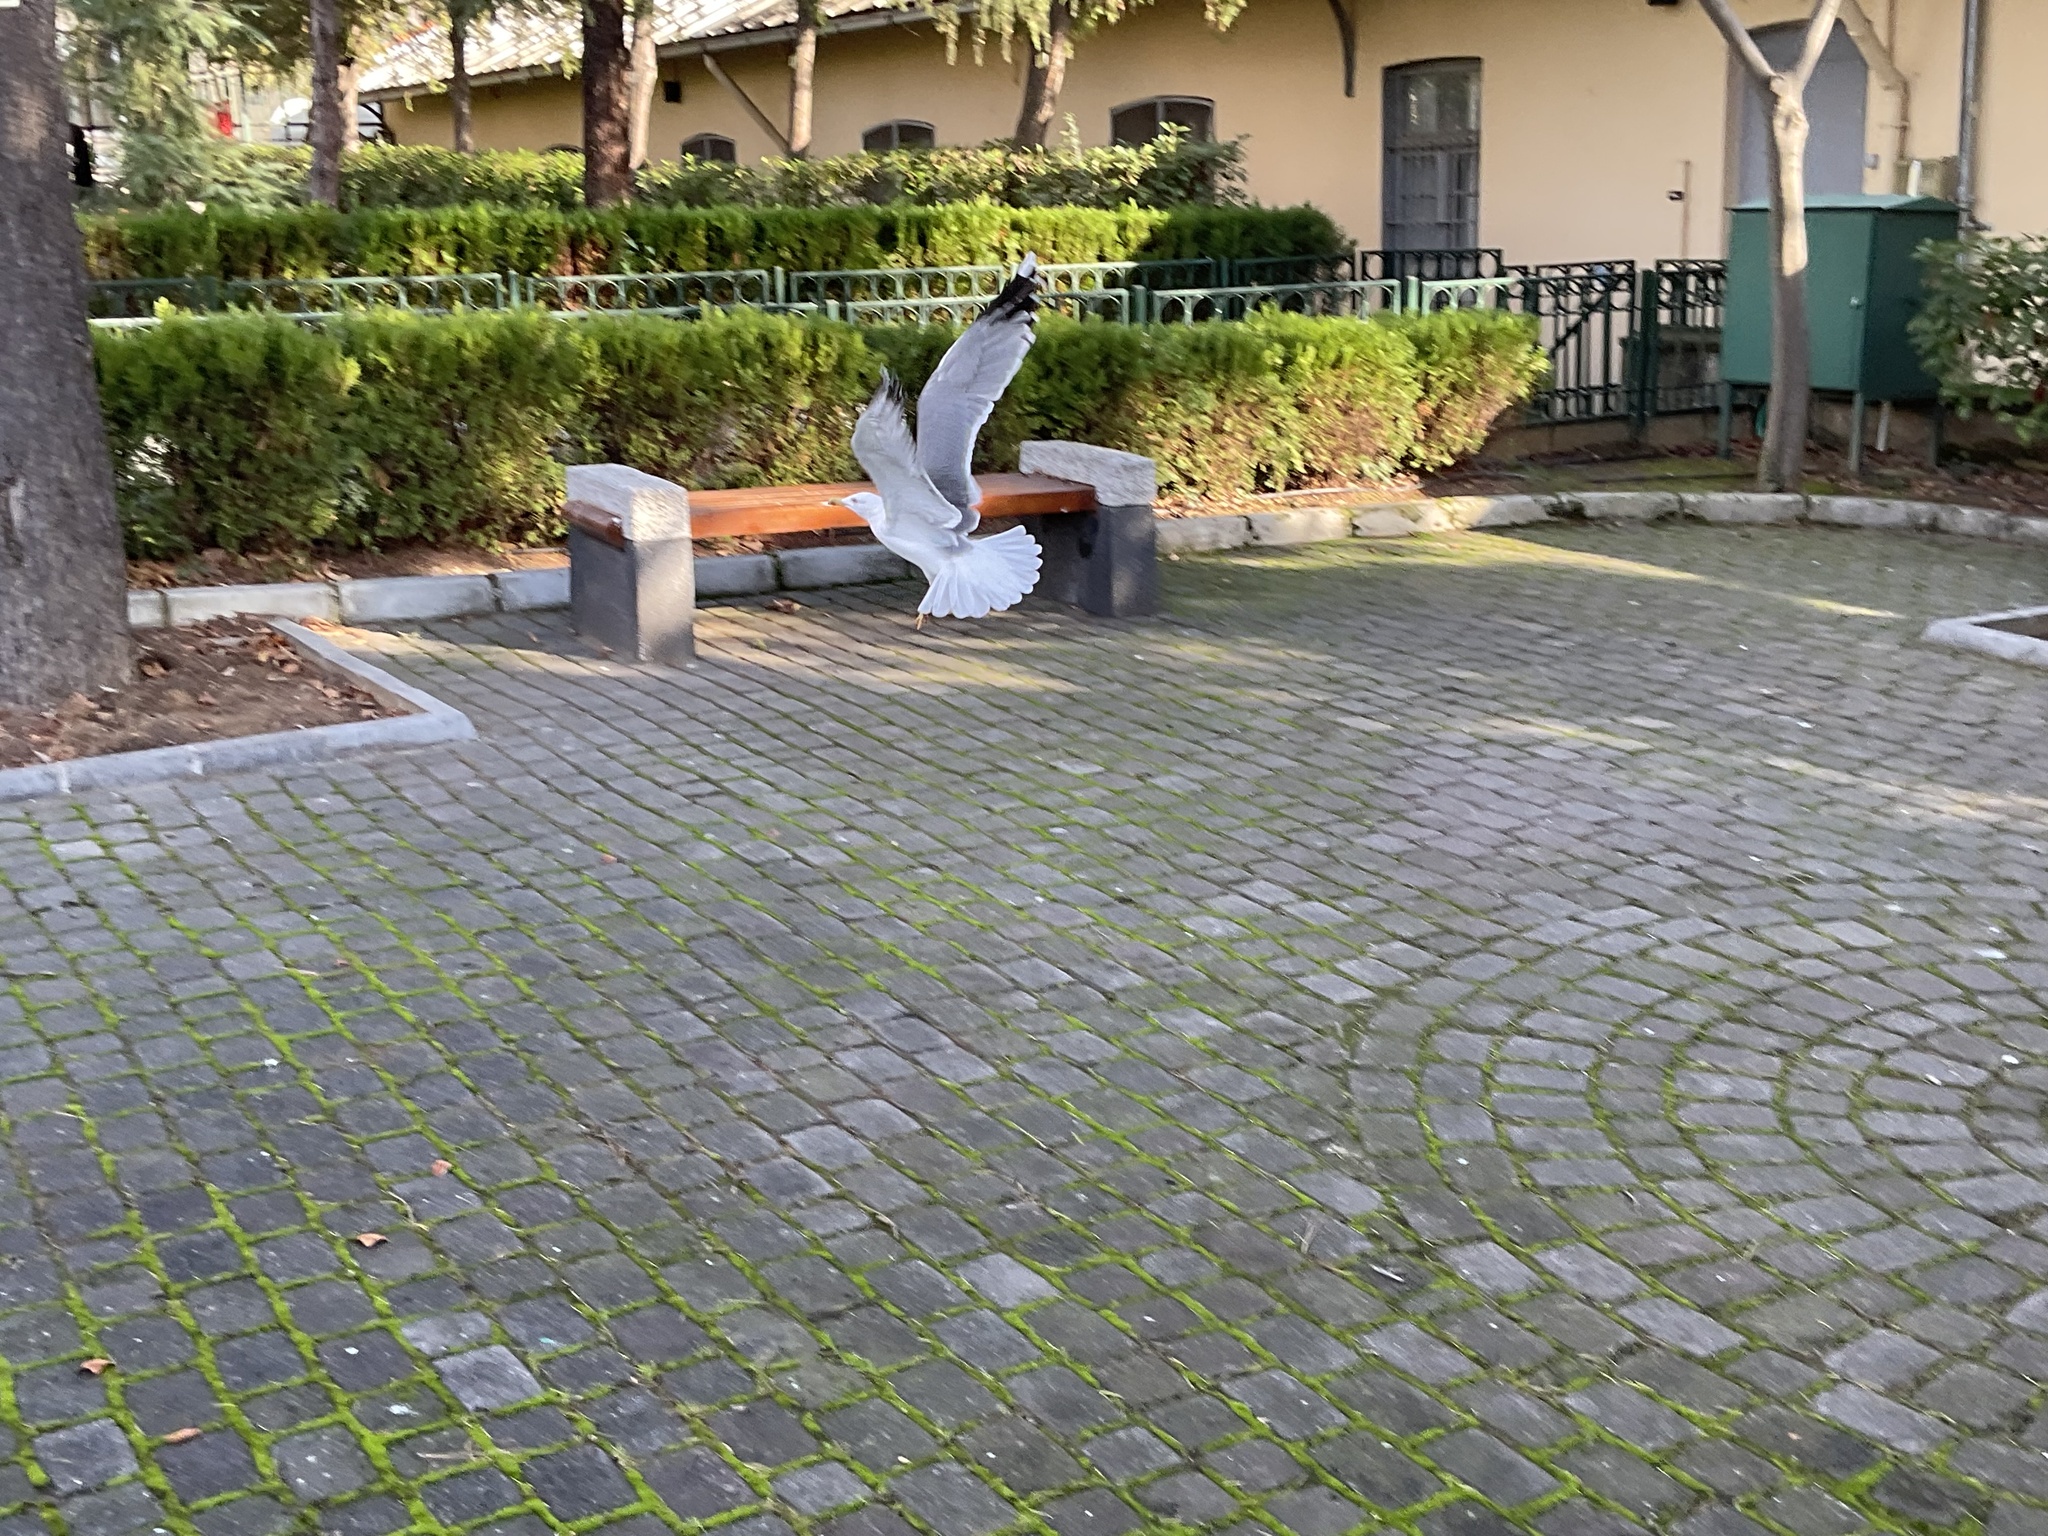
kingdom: Animalia
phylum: Chordata
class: Aves
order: Charadriiformes
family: Laridae
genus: Larus
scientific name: Larus michahellis
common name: Yellow-legged gull
